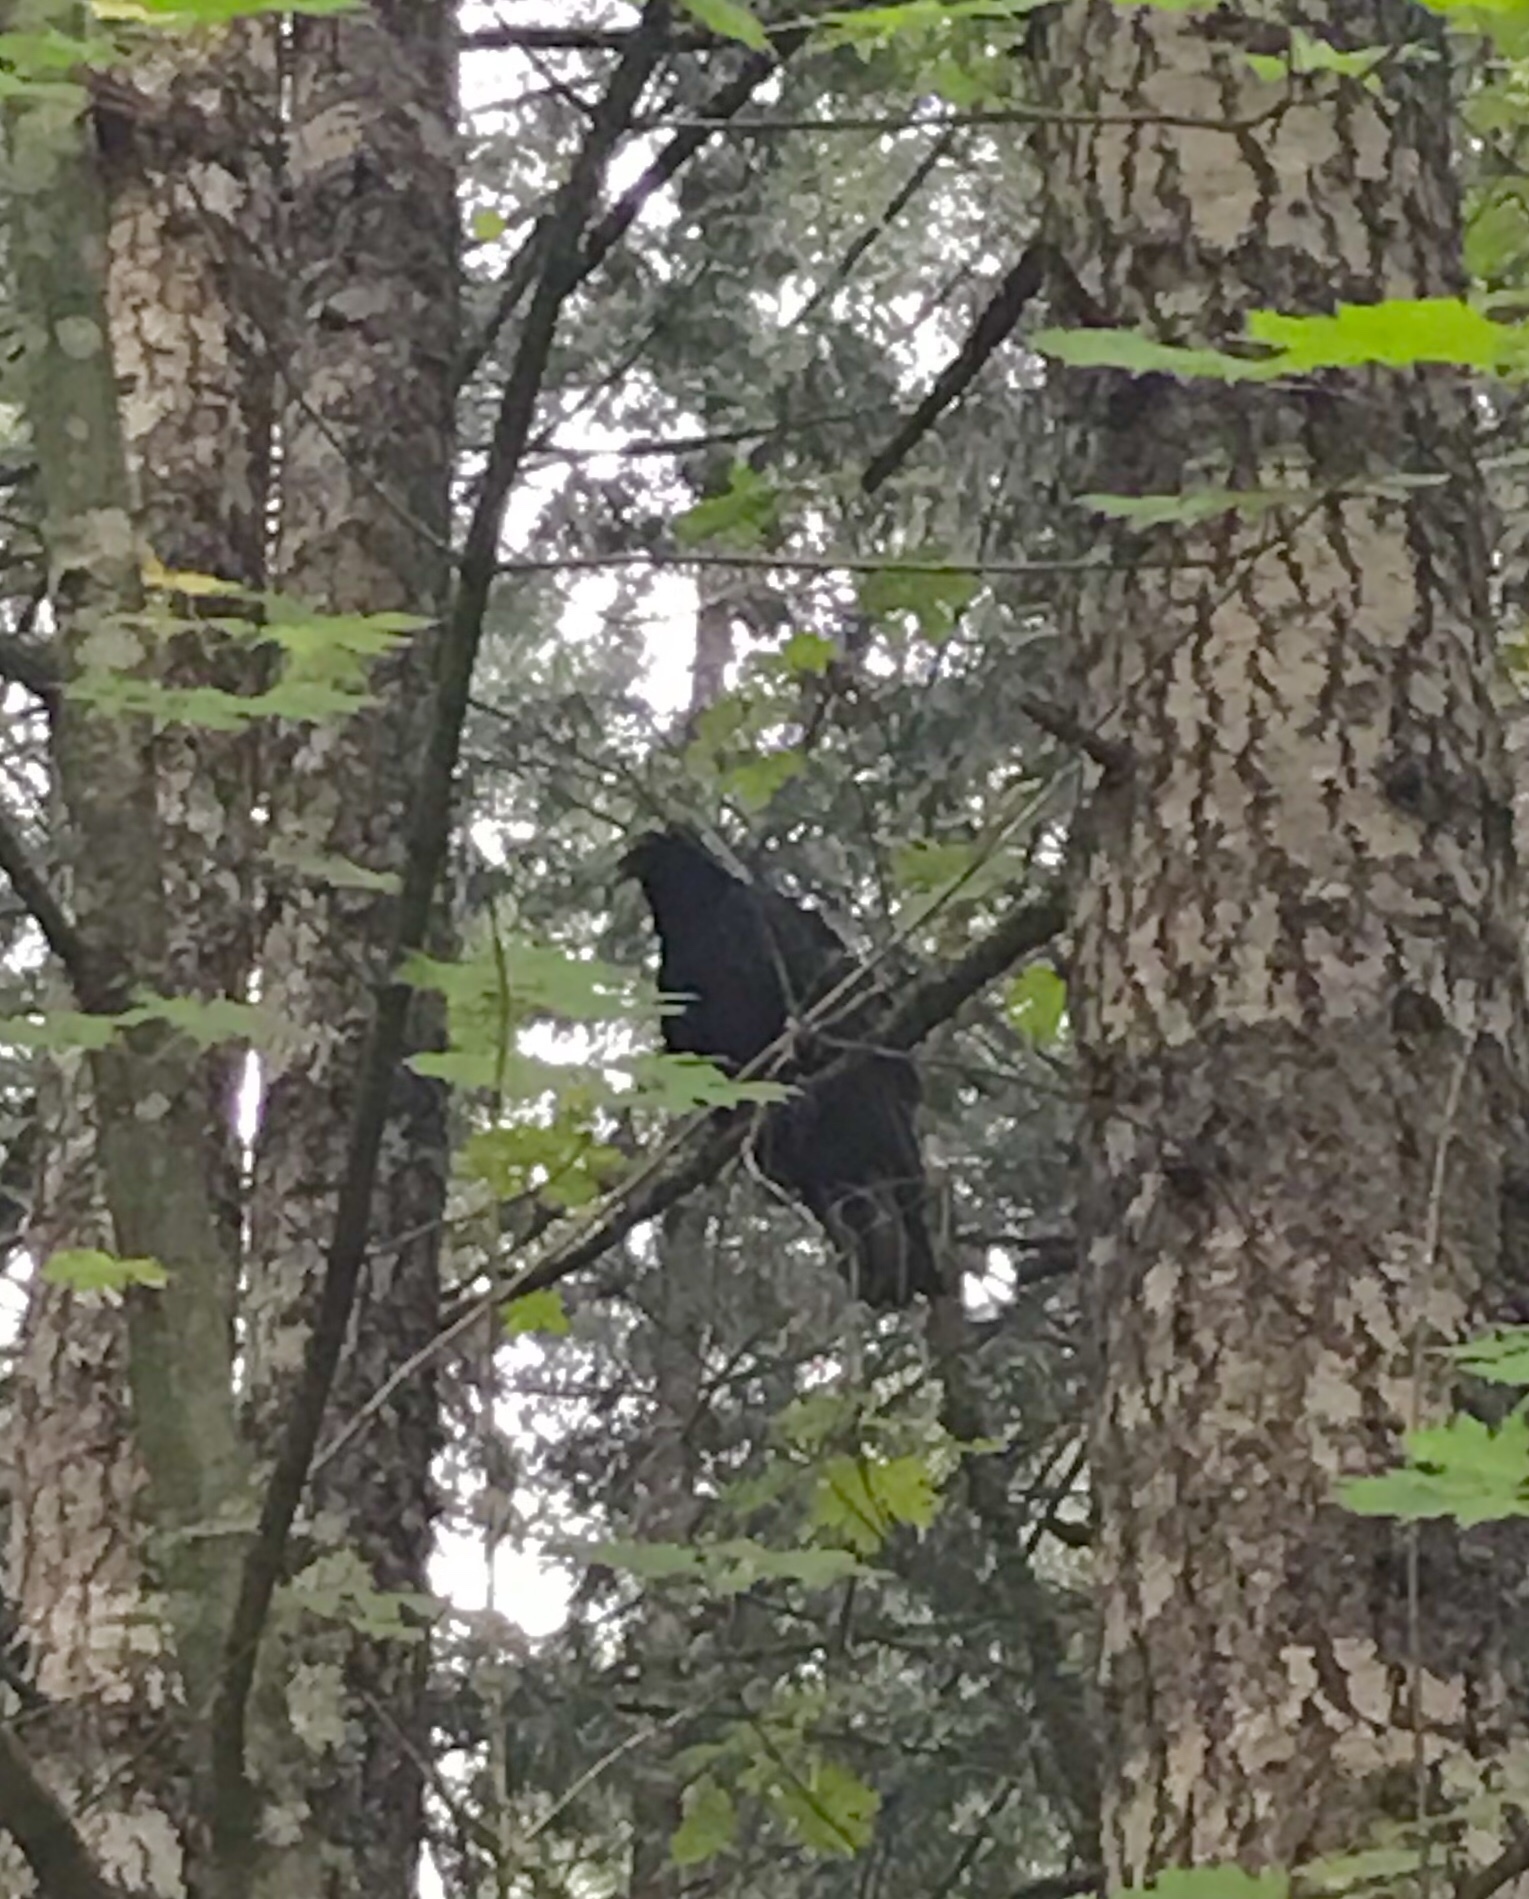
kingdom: Animalia
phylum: Chordata
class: Aves
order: Accipitriformes
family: Cathartidae
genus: Cathartes
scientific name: Cathartes aura
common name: Turkey vulture
